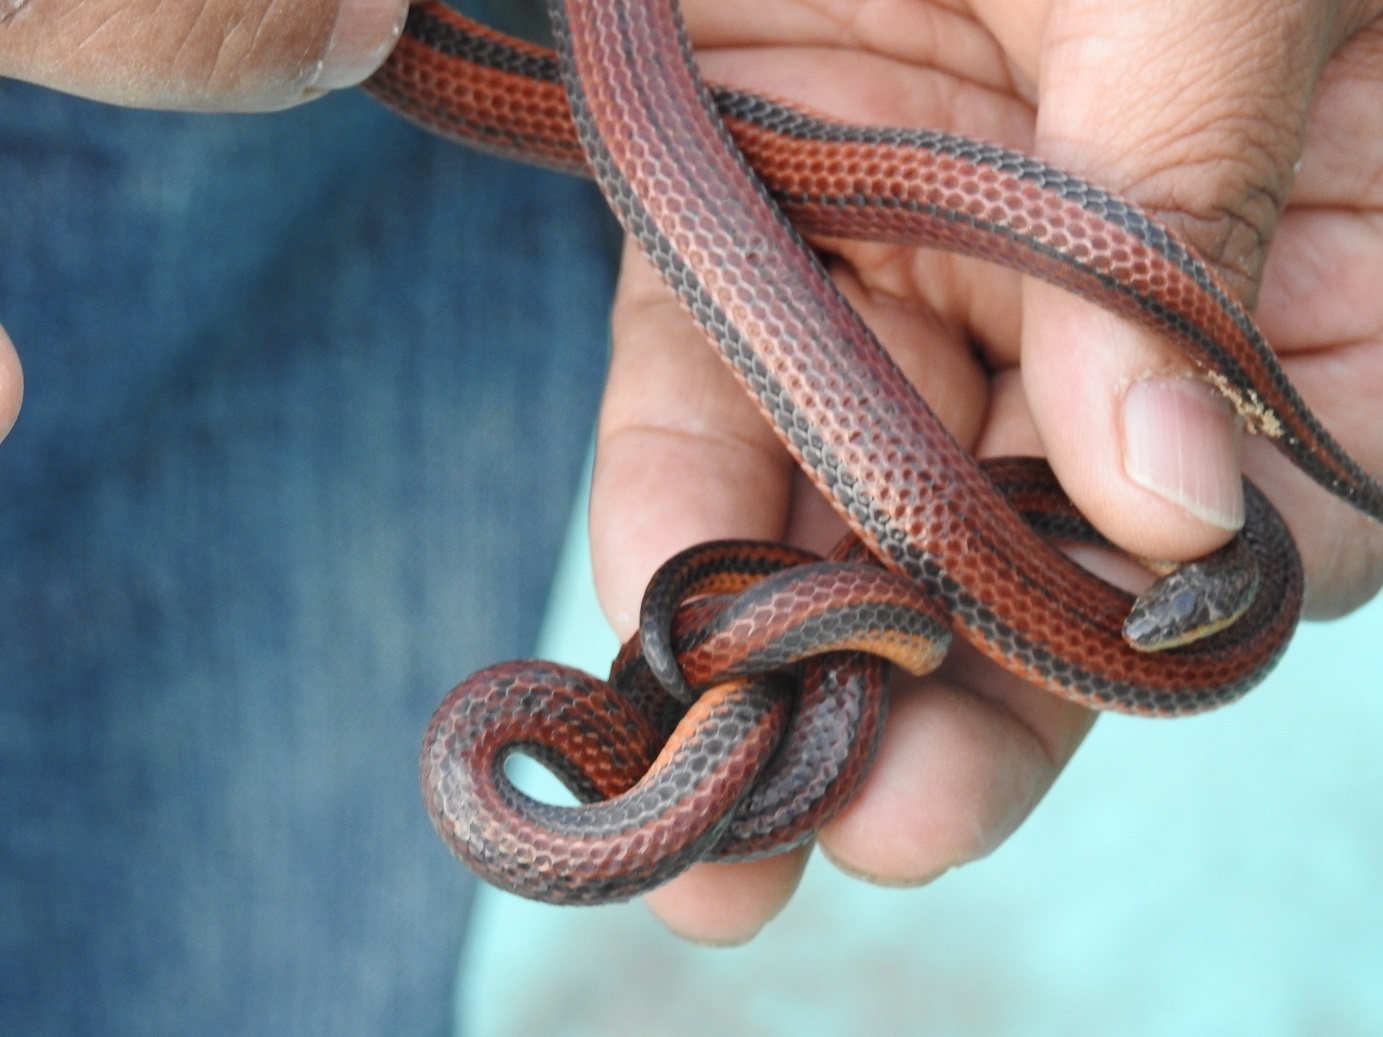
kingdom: Animalia
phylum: Chordata
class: Squamata
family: Colubridae
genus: Adelphicos
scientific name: Adelphicos nigrilatum
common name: Burrowing snake
